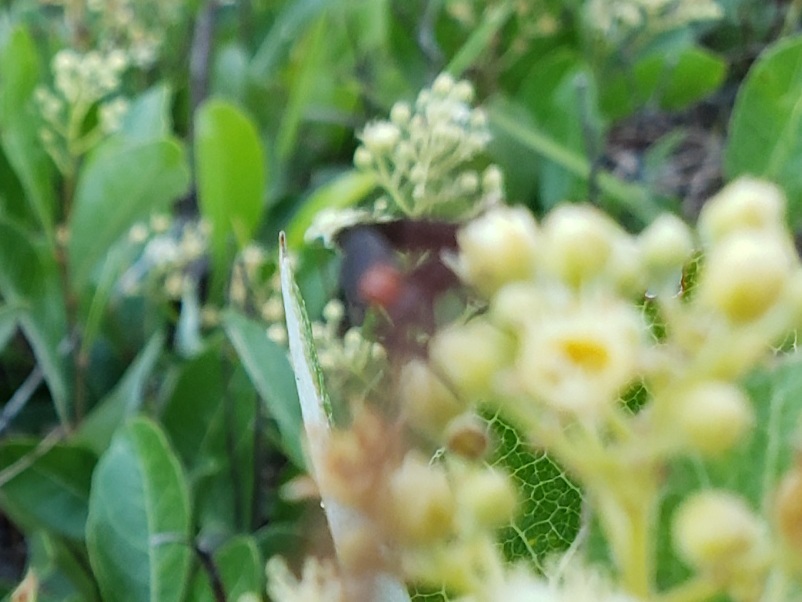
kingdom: Animalia
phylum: Arthropoda
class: Insecta
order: Diptera
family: Bibionidae
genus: Plecia
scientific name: Plecia nearctica
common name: March fly
